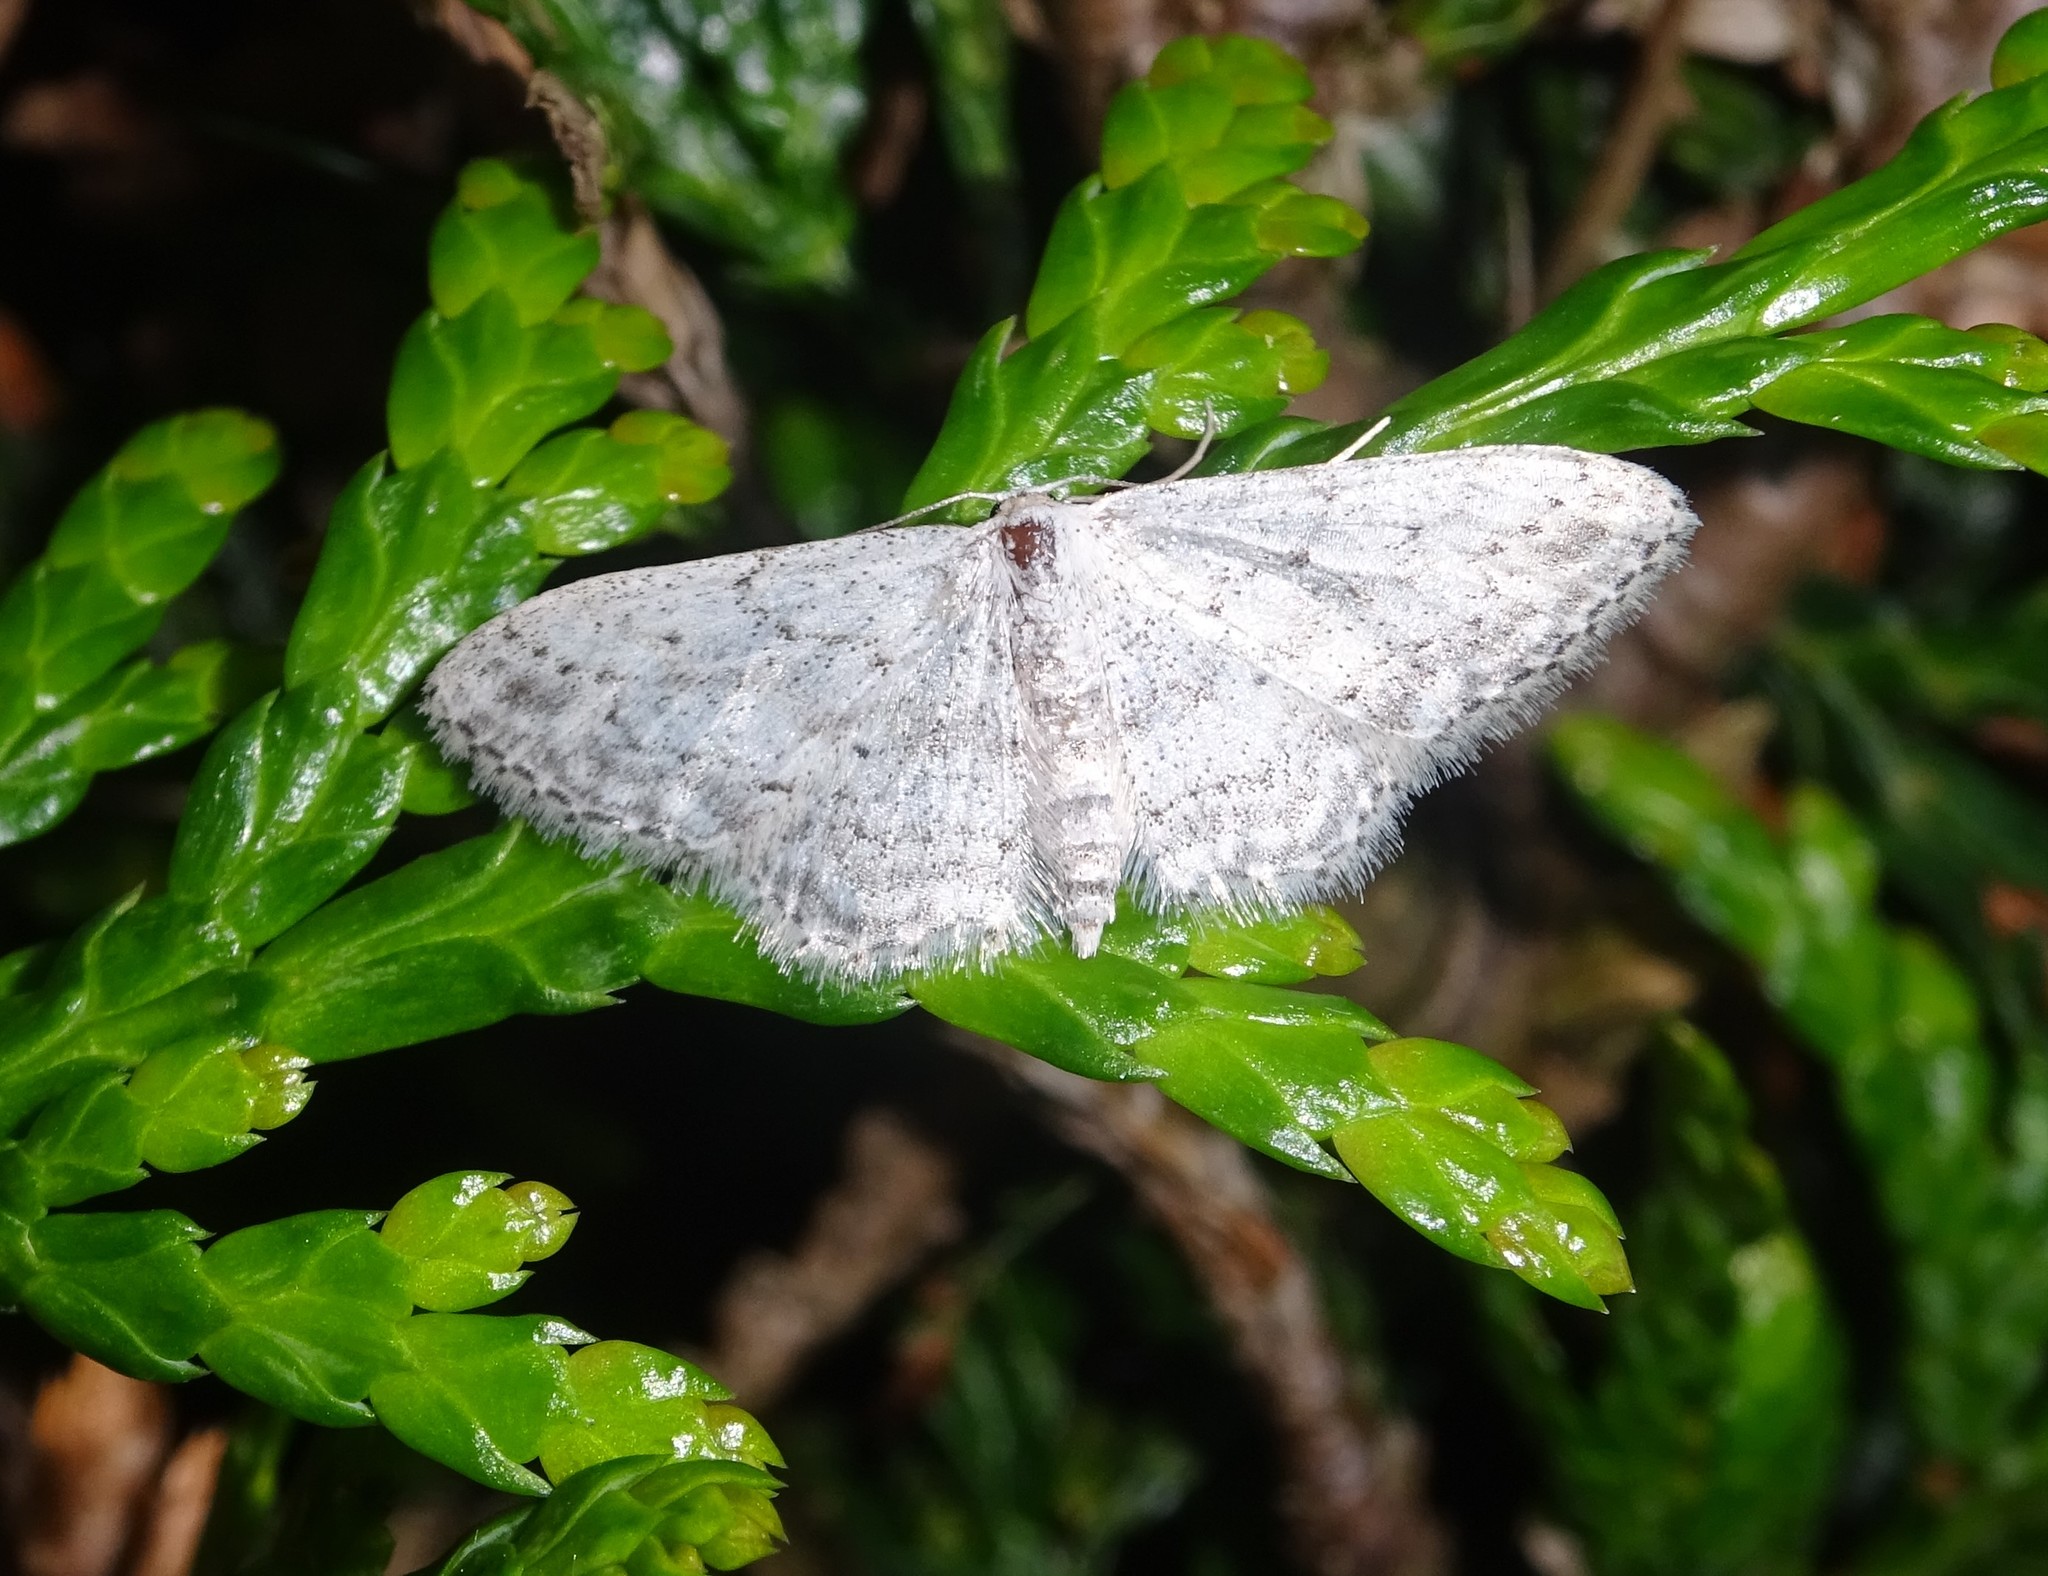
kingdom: Animalia
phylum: Arthropoda
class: Insecta
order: Lepidoptera
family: Geometridae
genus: Idaea
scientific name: Idaea seriata
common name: Small dusty wave
